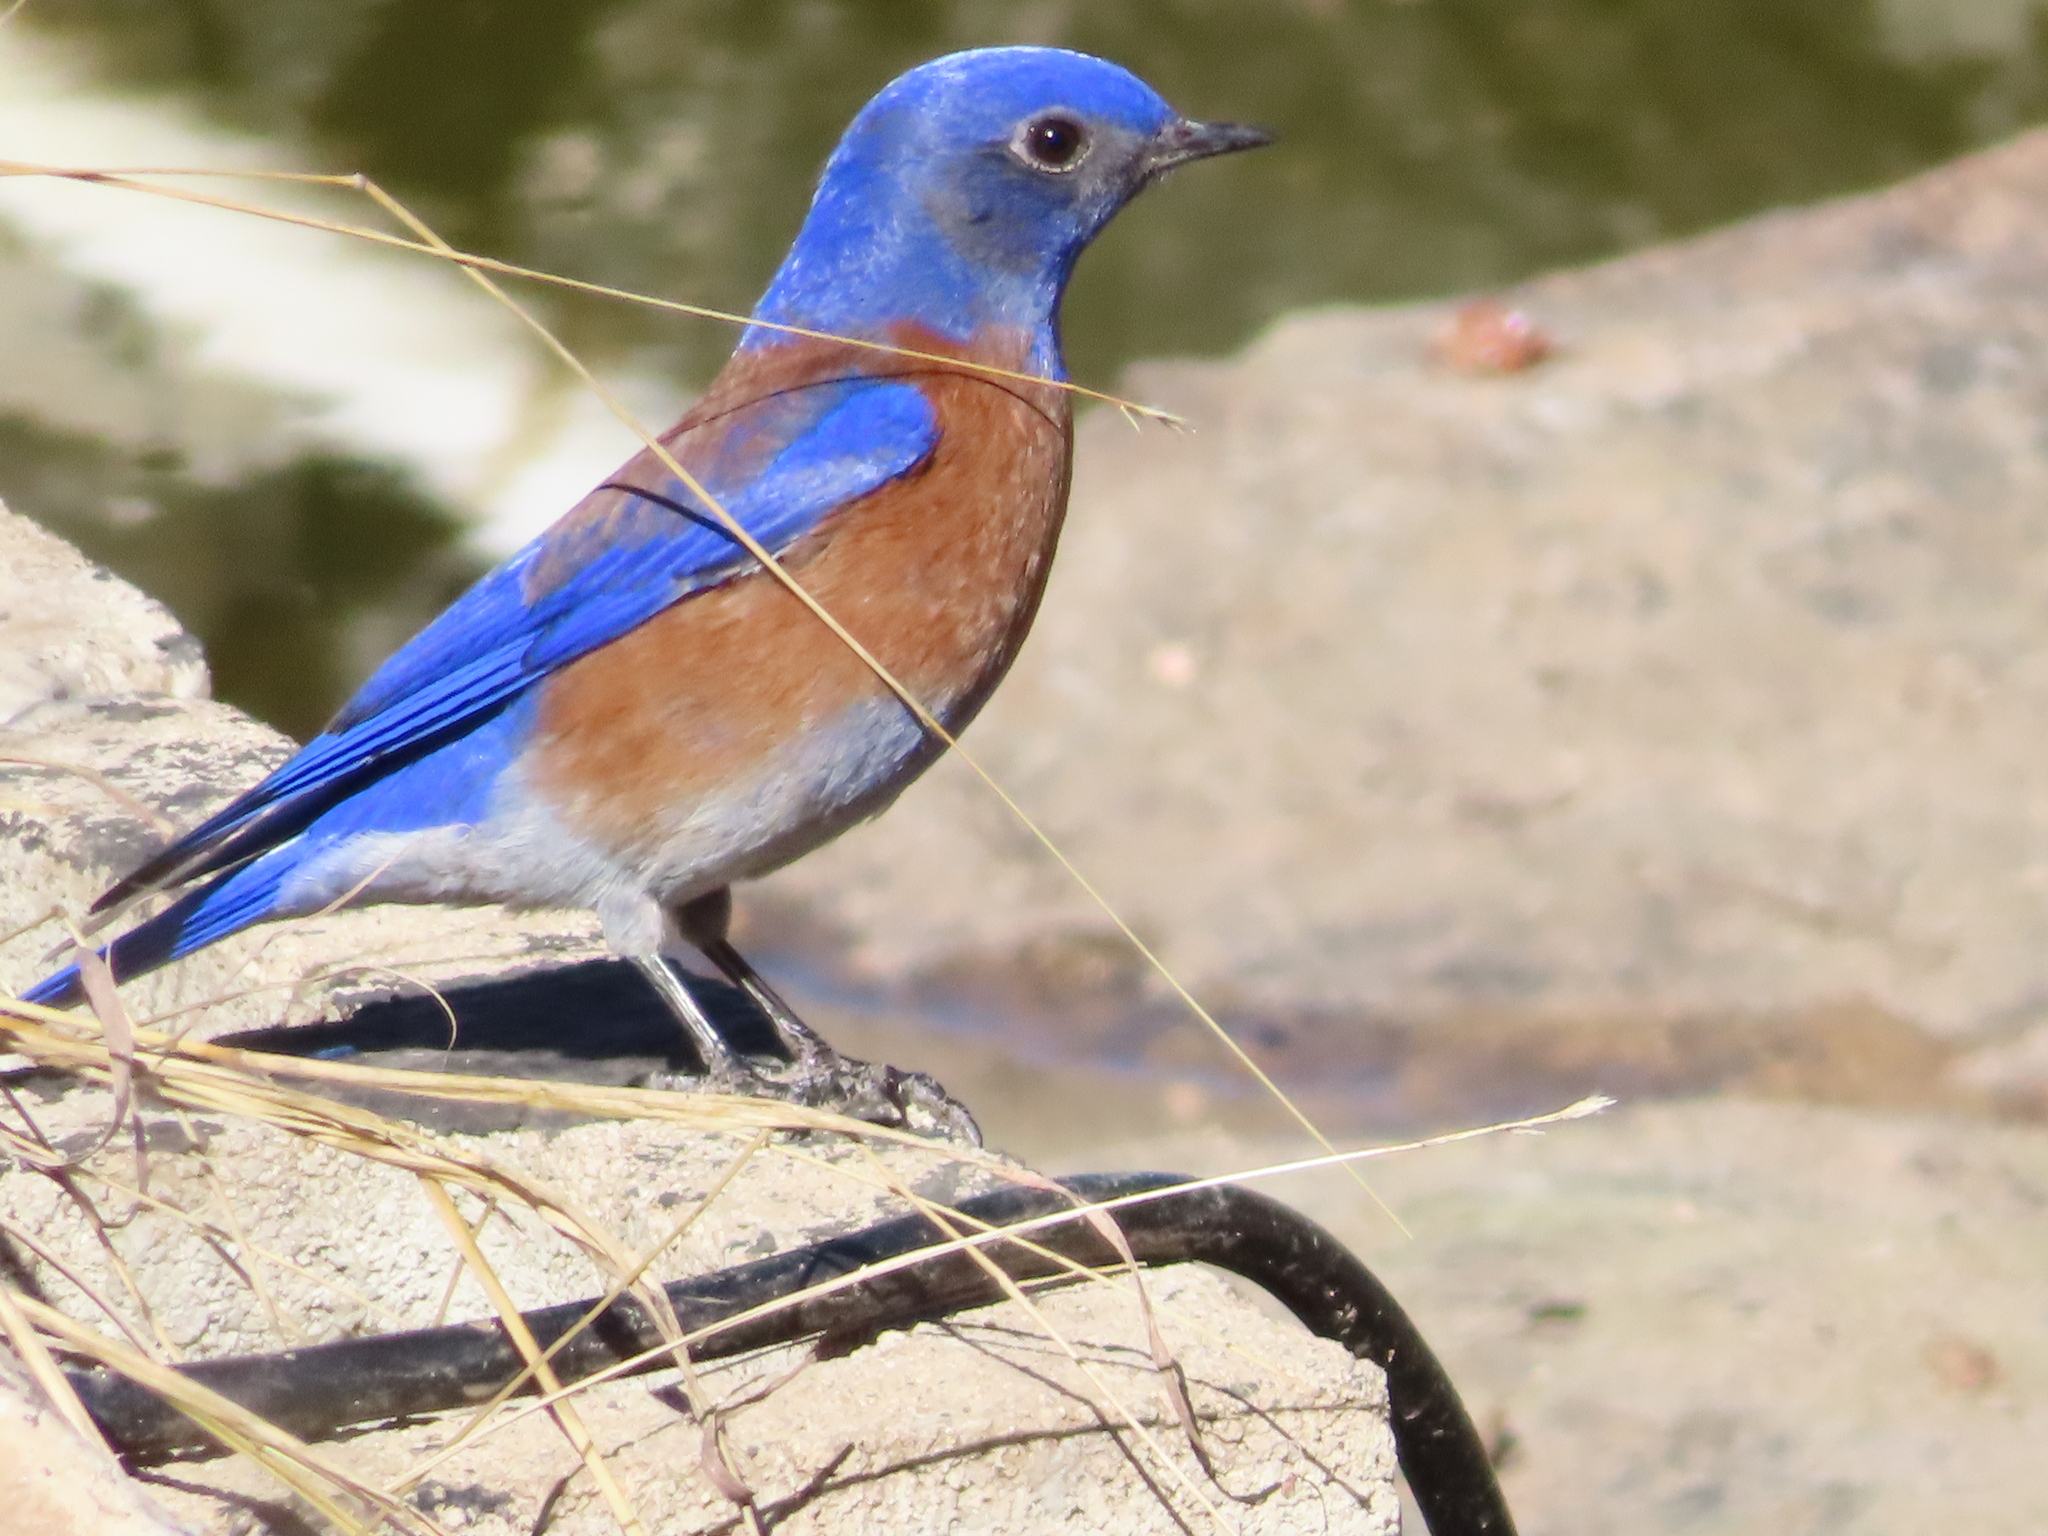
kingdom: Animalia
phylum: Chordata
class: Aves
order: Passeriformes
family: Turdidae
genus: Sialia
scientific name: Sialia mexicana
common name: Western bluebird
